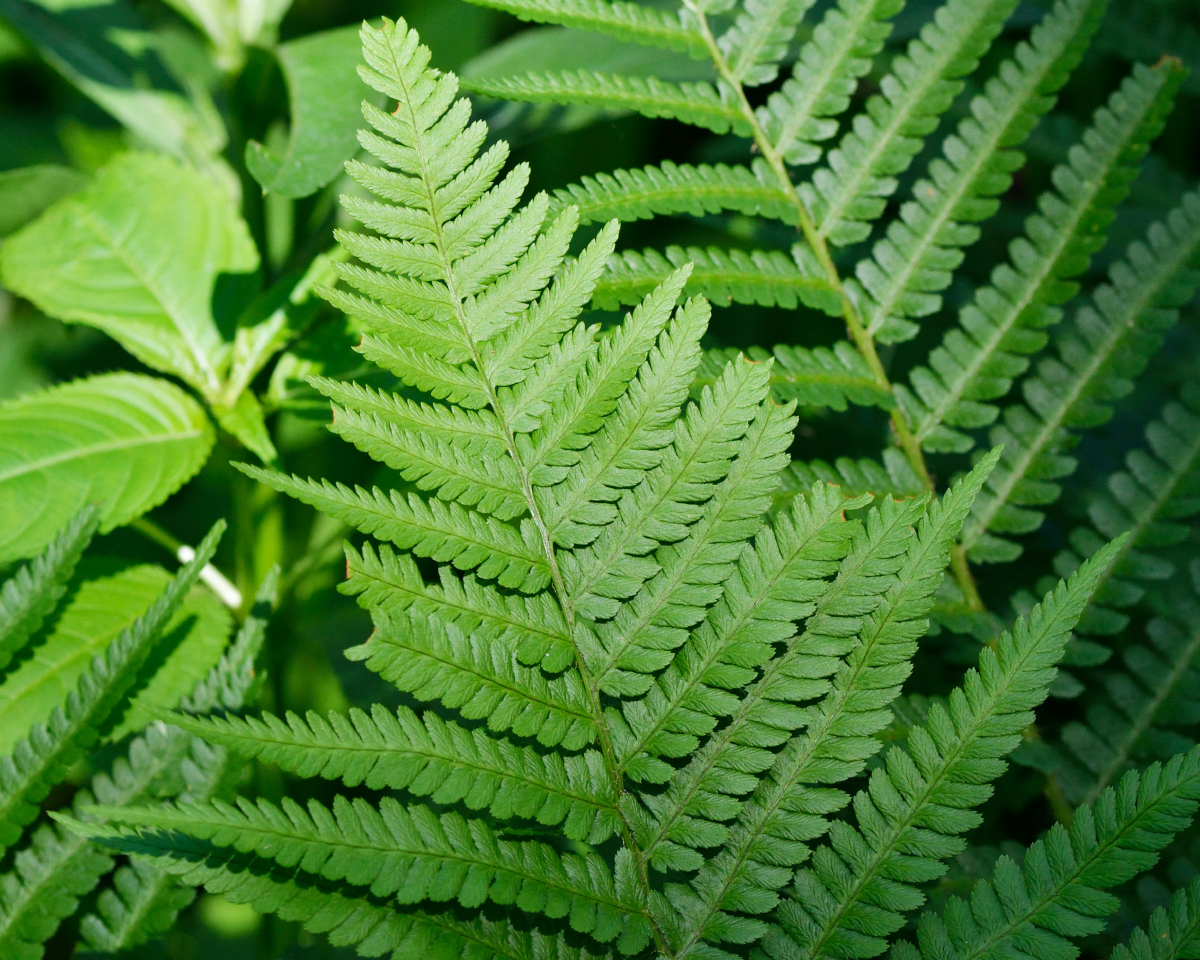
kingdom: Plantae
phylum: Tracheophyta
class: Polypodiopsida
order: Polypodiales
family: Dryopteridaceae
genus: Dryopteris
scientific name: Dryopteris filix-mas
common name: Male fern
